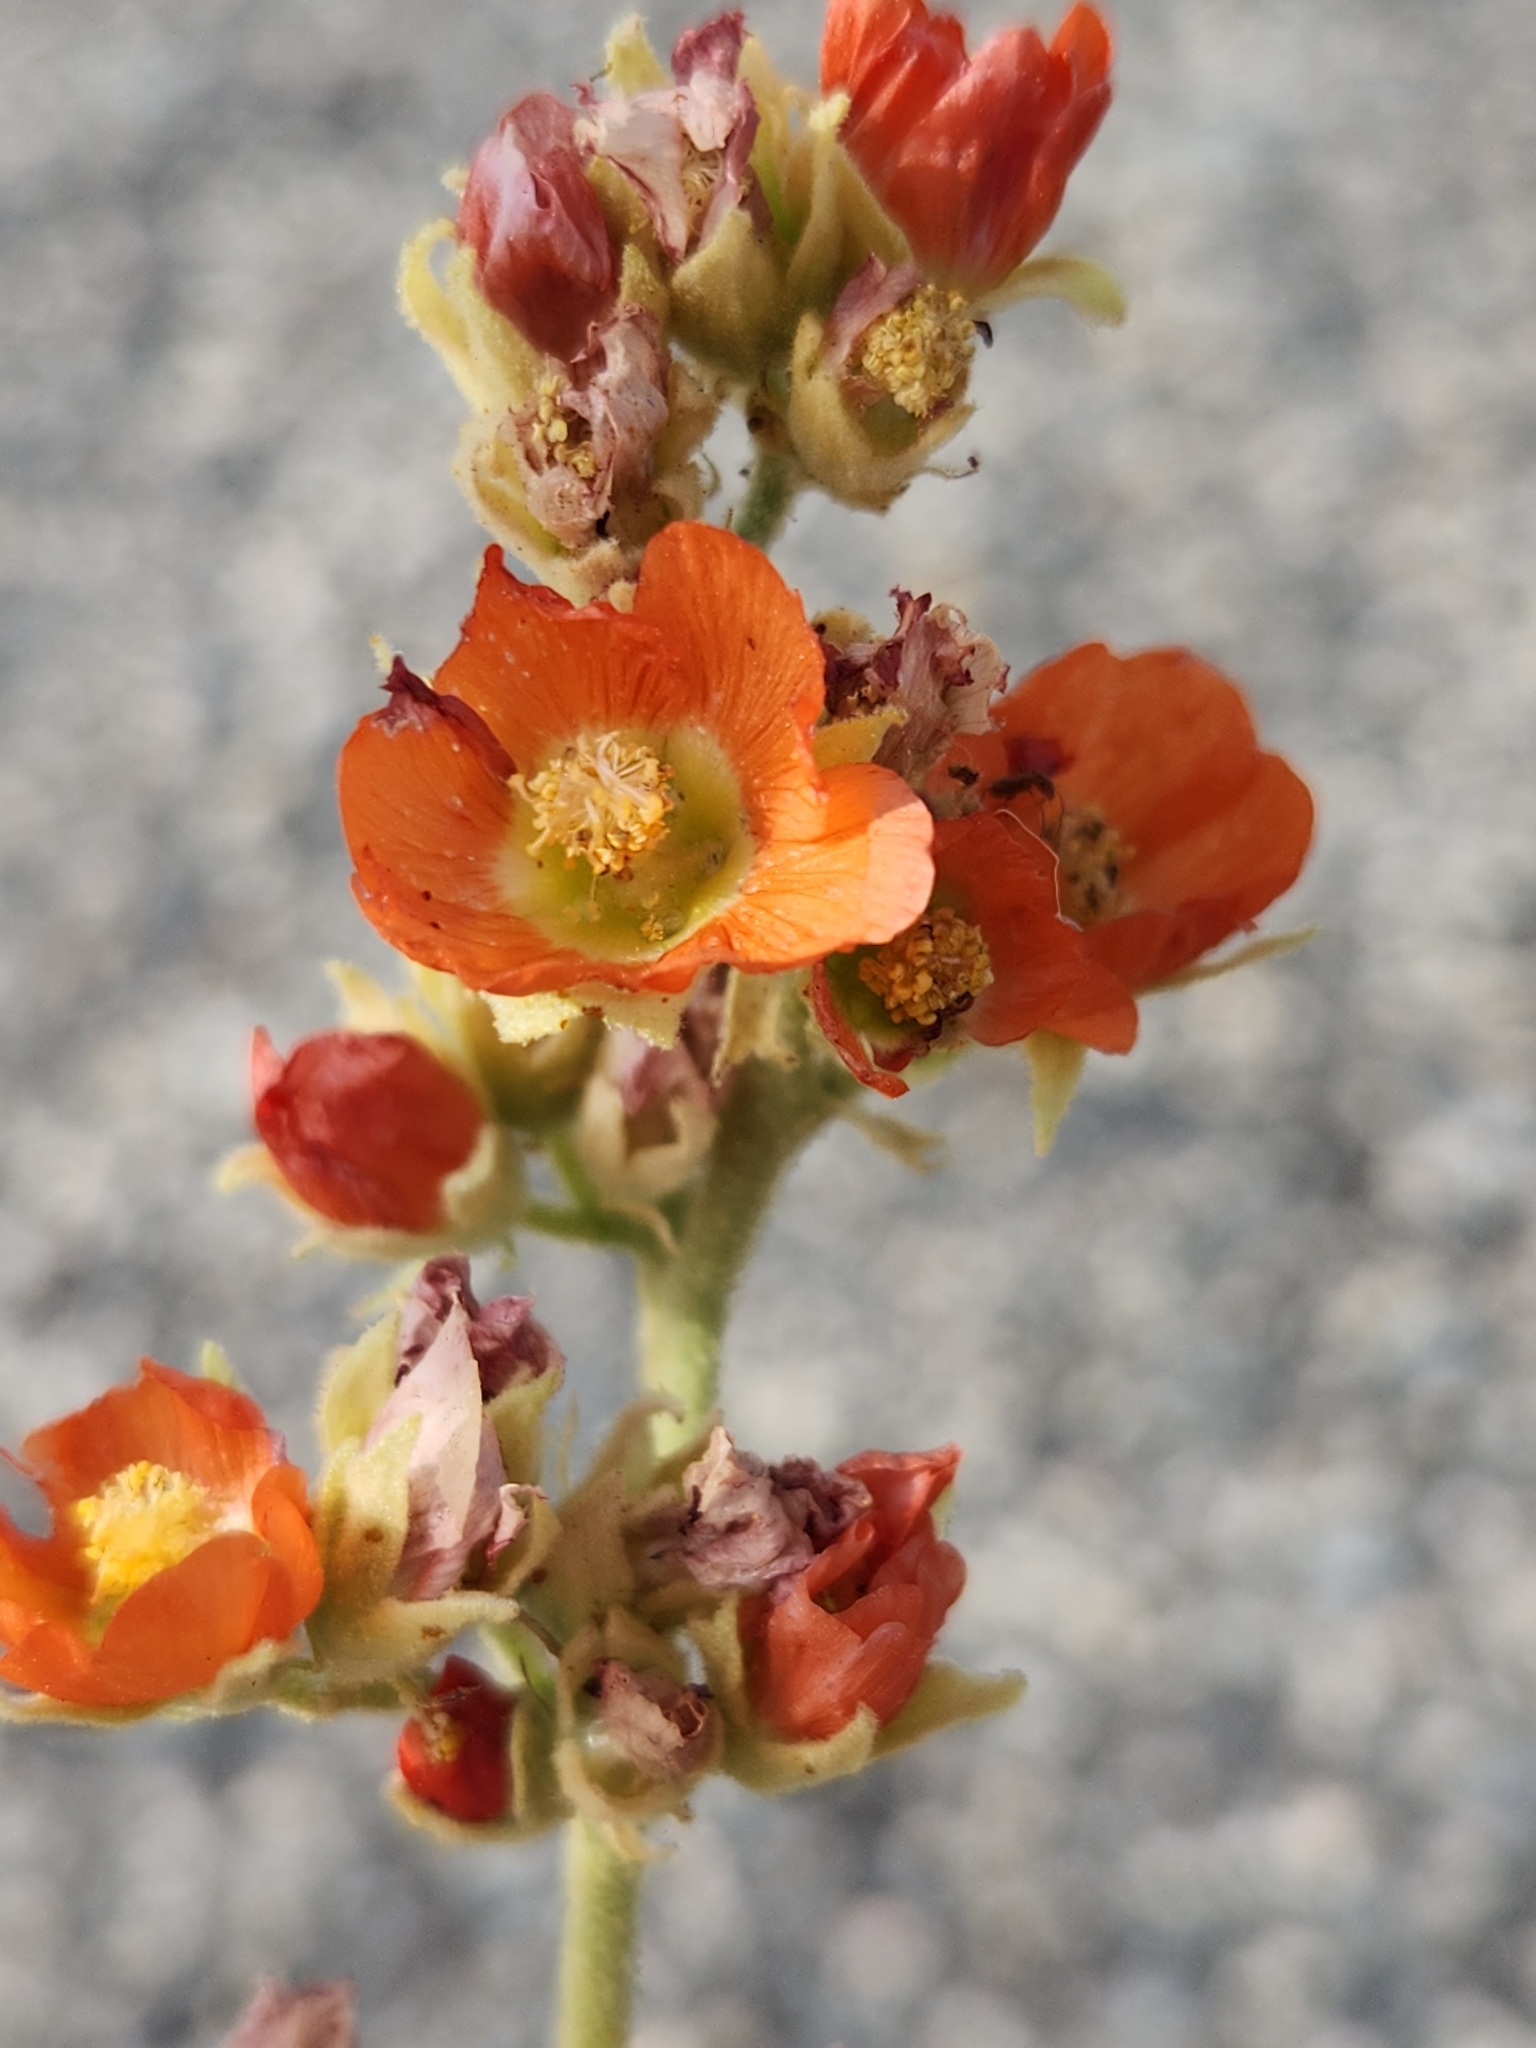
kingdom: Plantae
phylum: Tracheophyta
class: Magnoliopsida
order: Malvales
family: Malvaceae
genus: Sphaeralcea
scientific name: Sphaeralcea ambigua
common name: Apricot globe-mallow
